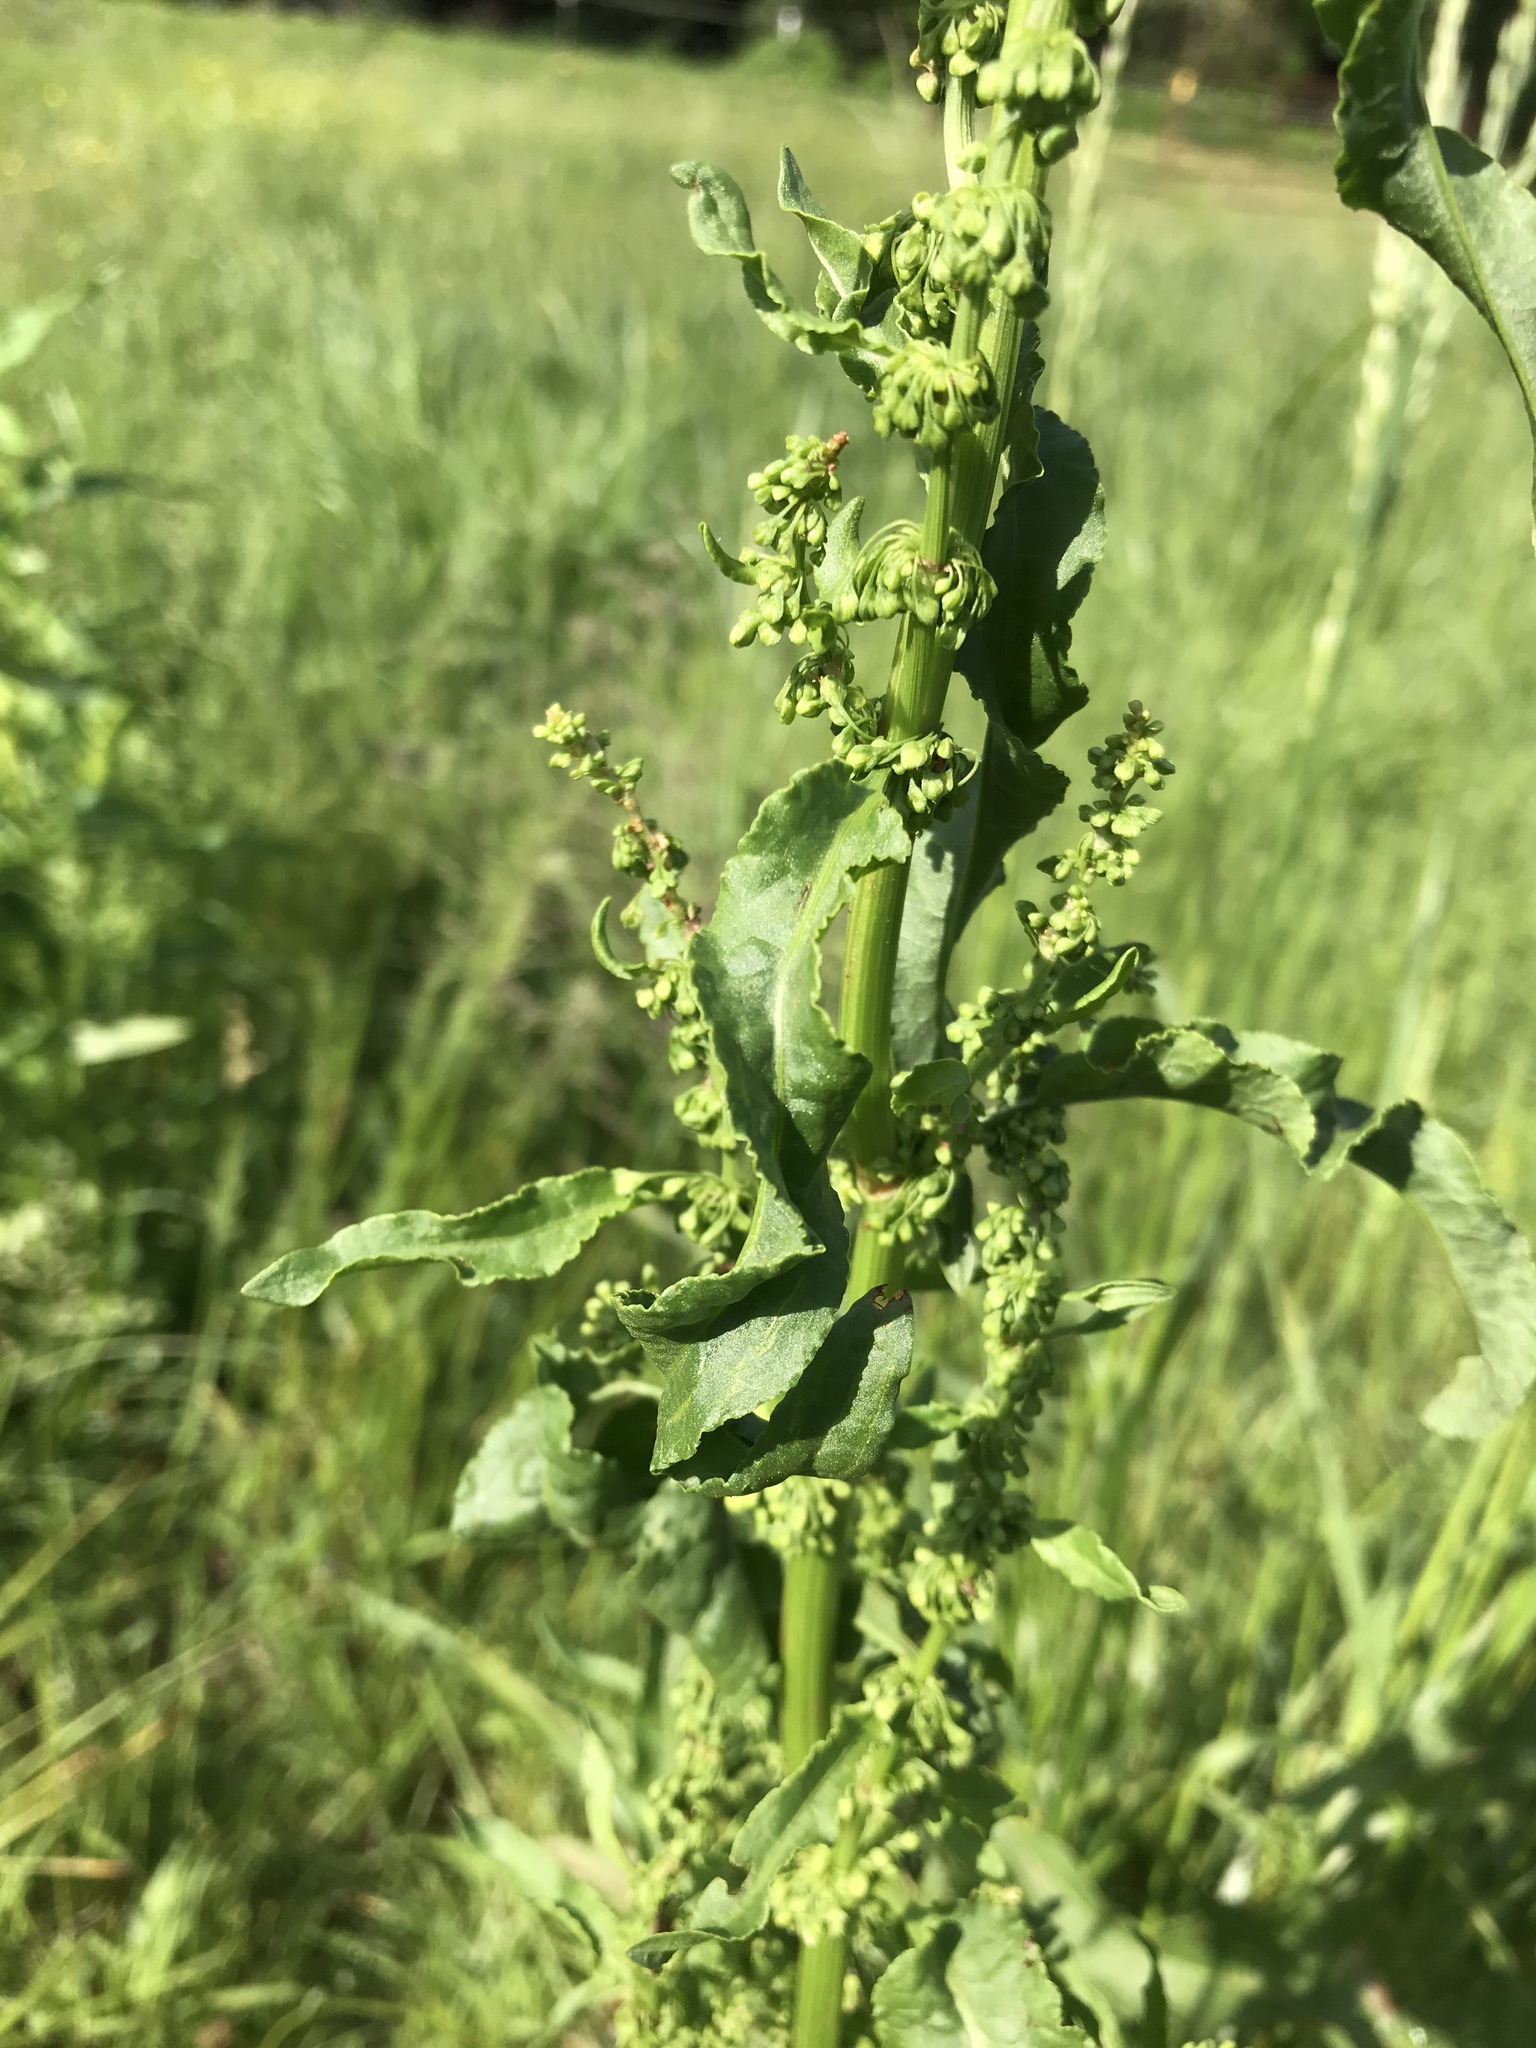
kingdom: Plantae
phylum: Tracheophyta
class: Magnoliopsida
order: Caryophyllales
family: Polygonaceae
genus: Rumex
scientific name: Rumex crispus
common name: Curled dock
